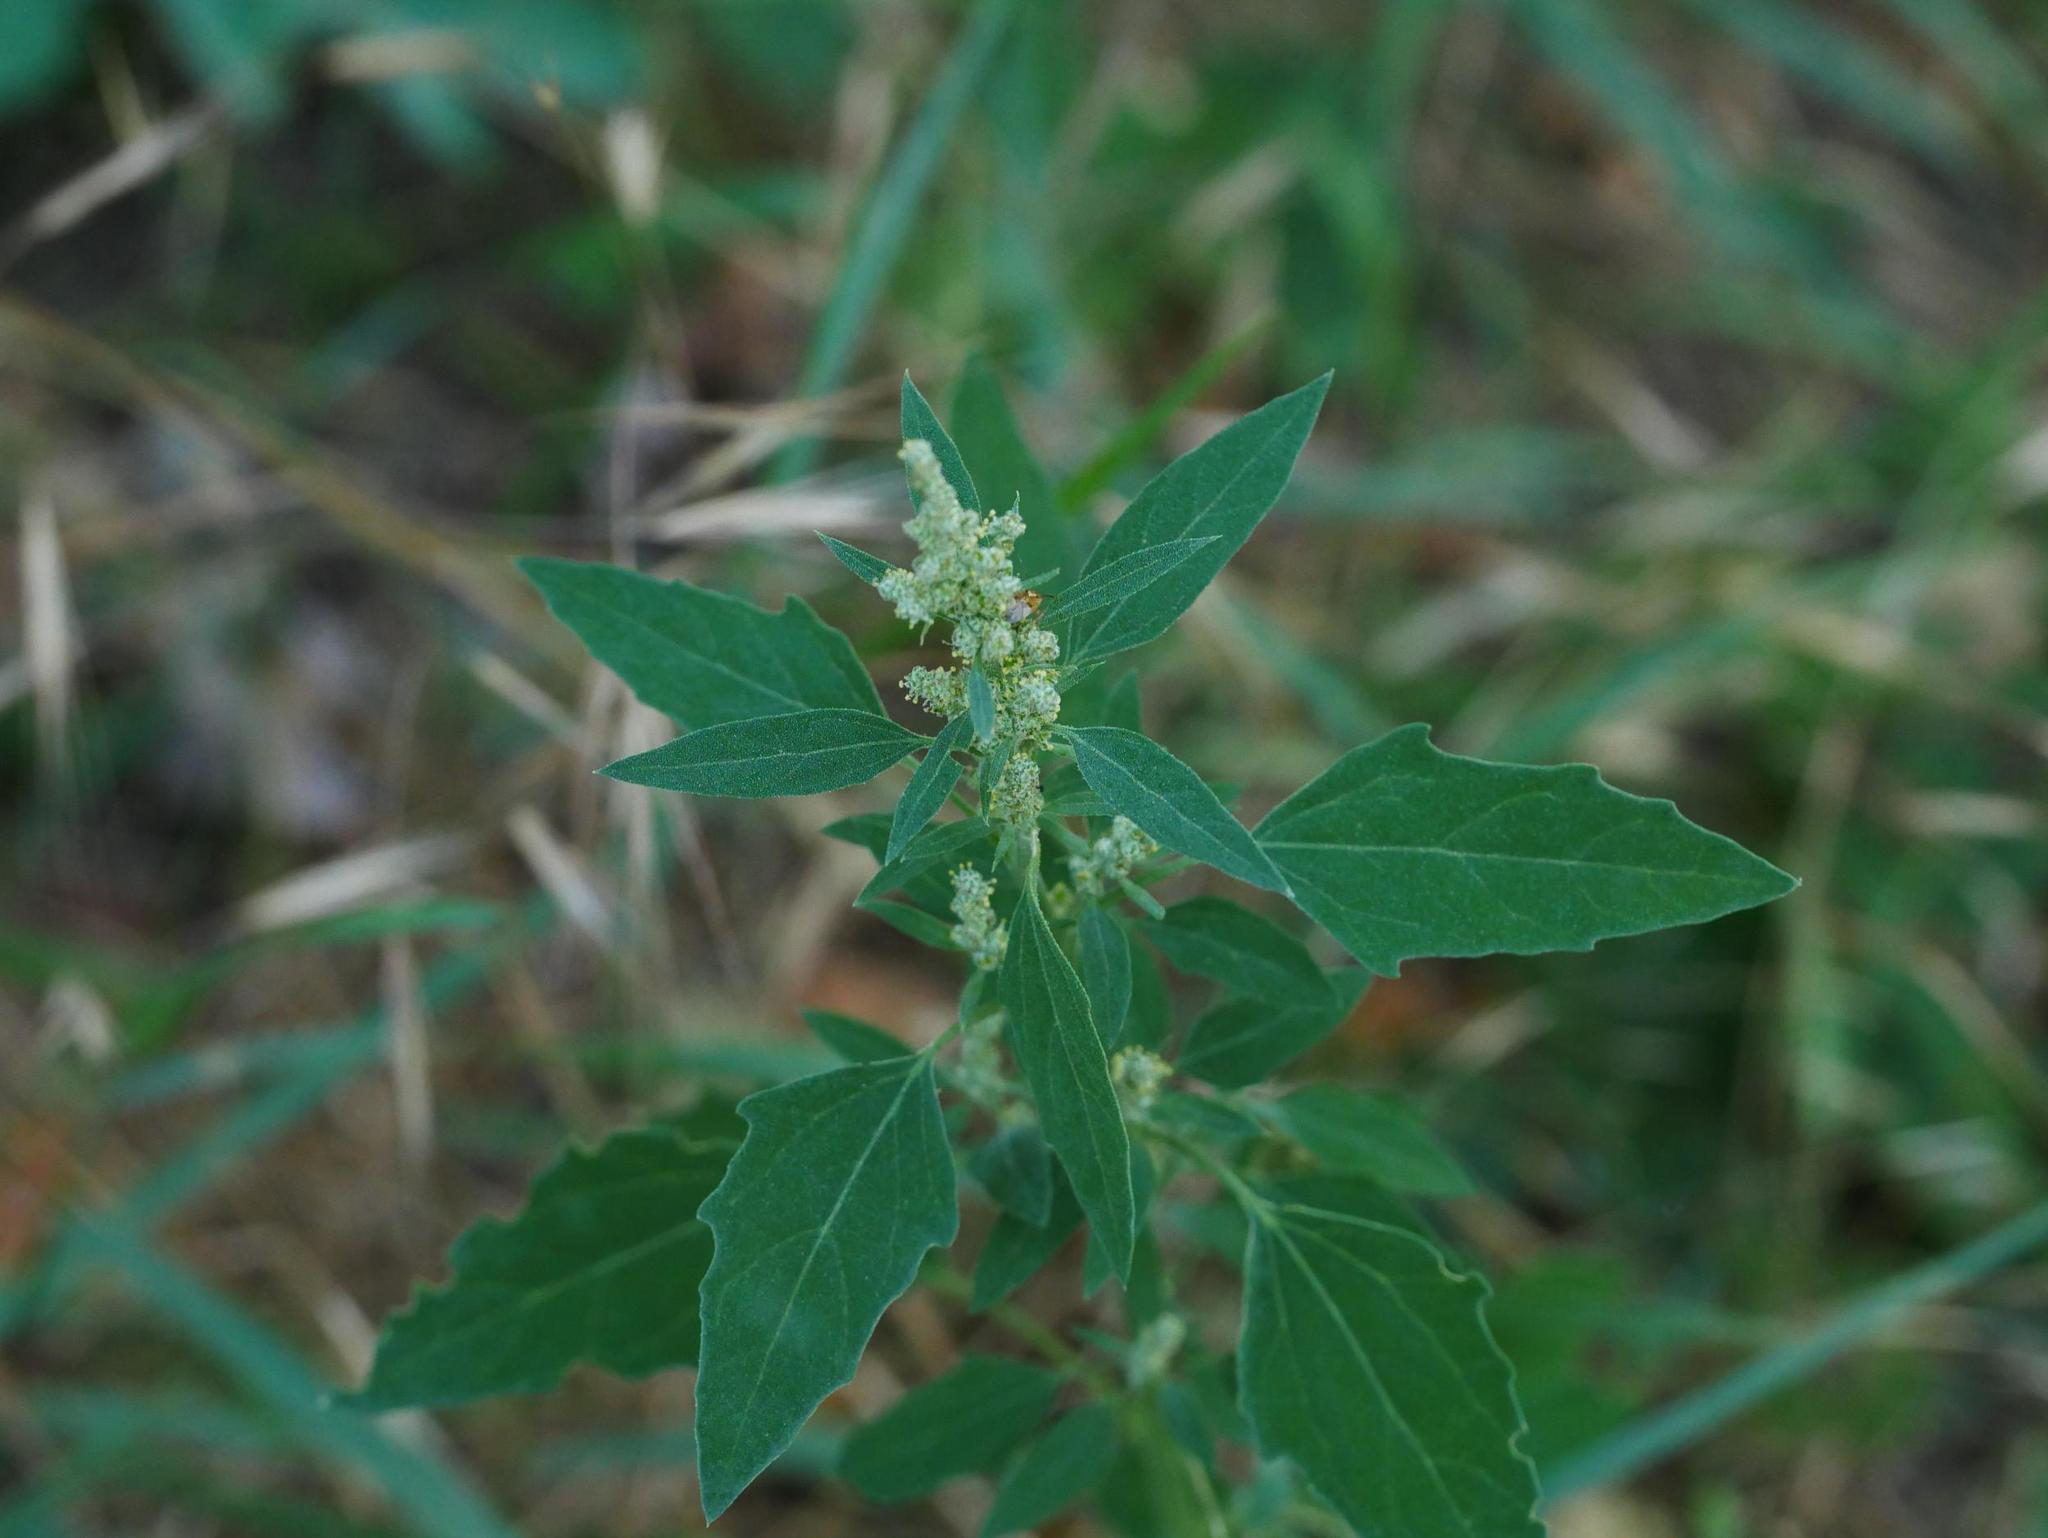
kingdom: Plantae
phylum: Tracheophyta
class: Magnoliopsida
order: Caryophyllales
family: Amaranthaceae
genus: Chenopodium
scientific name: Chenopodium album
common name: Fat-hen
